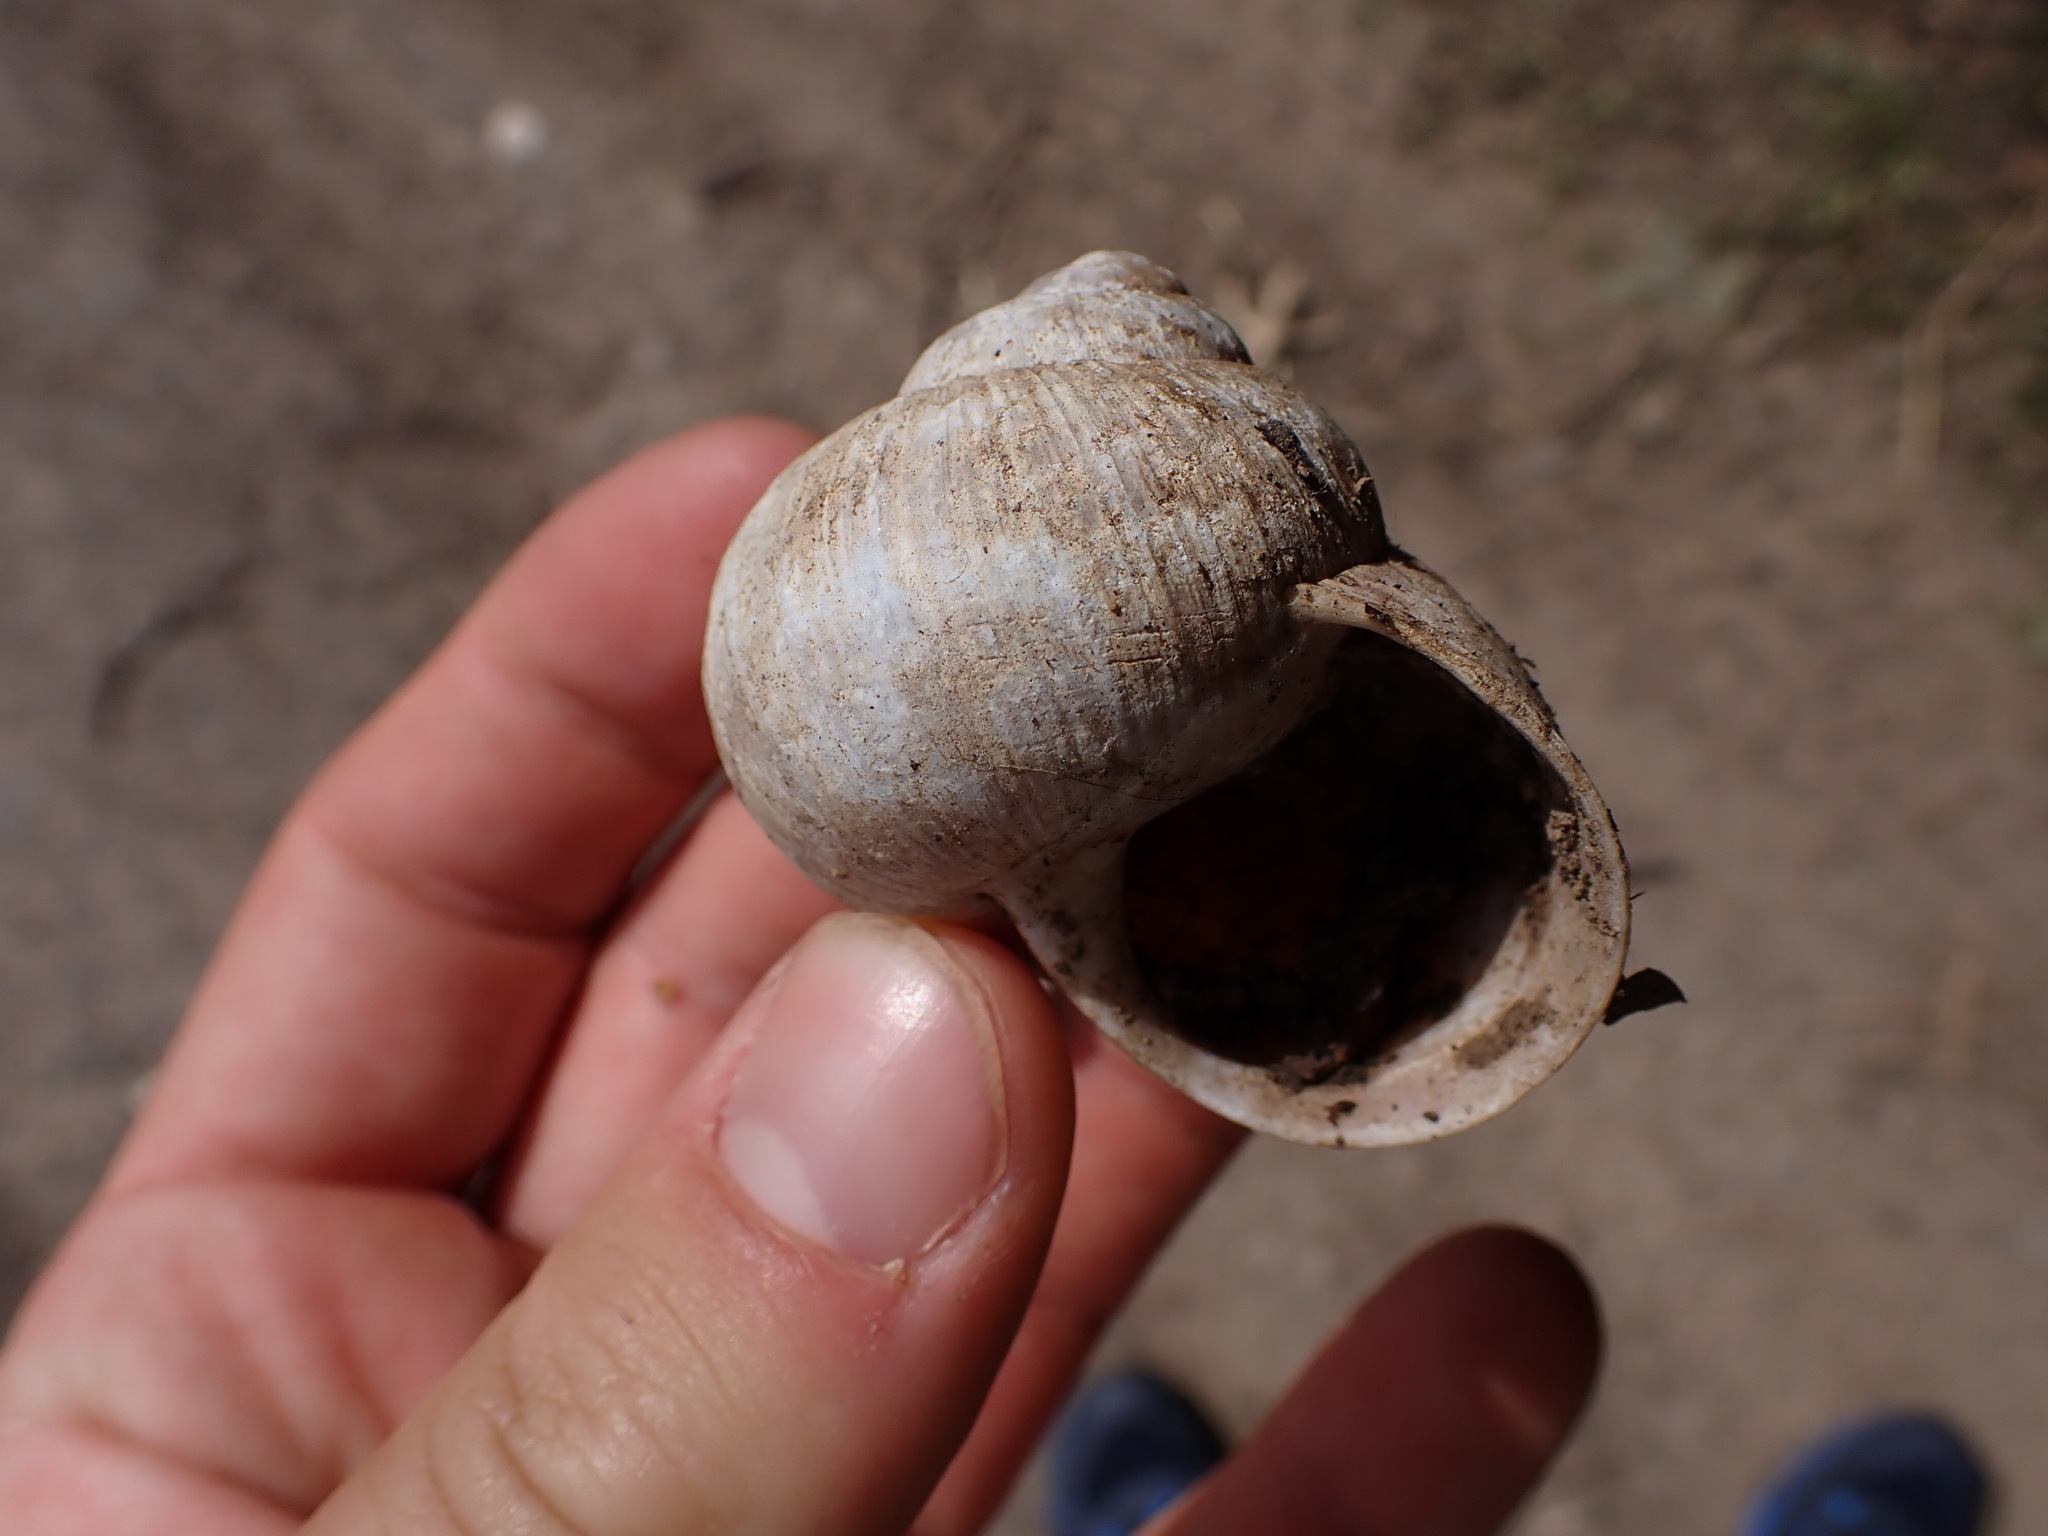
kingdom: Animalia
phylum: Mollusca
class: Gastropoda
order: Stylommatophora
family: Helicidae
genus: Helix
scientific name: Helix pomatia
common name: Roman snail
